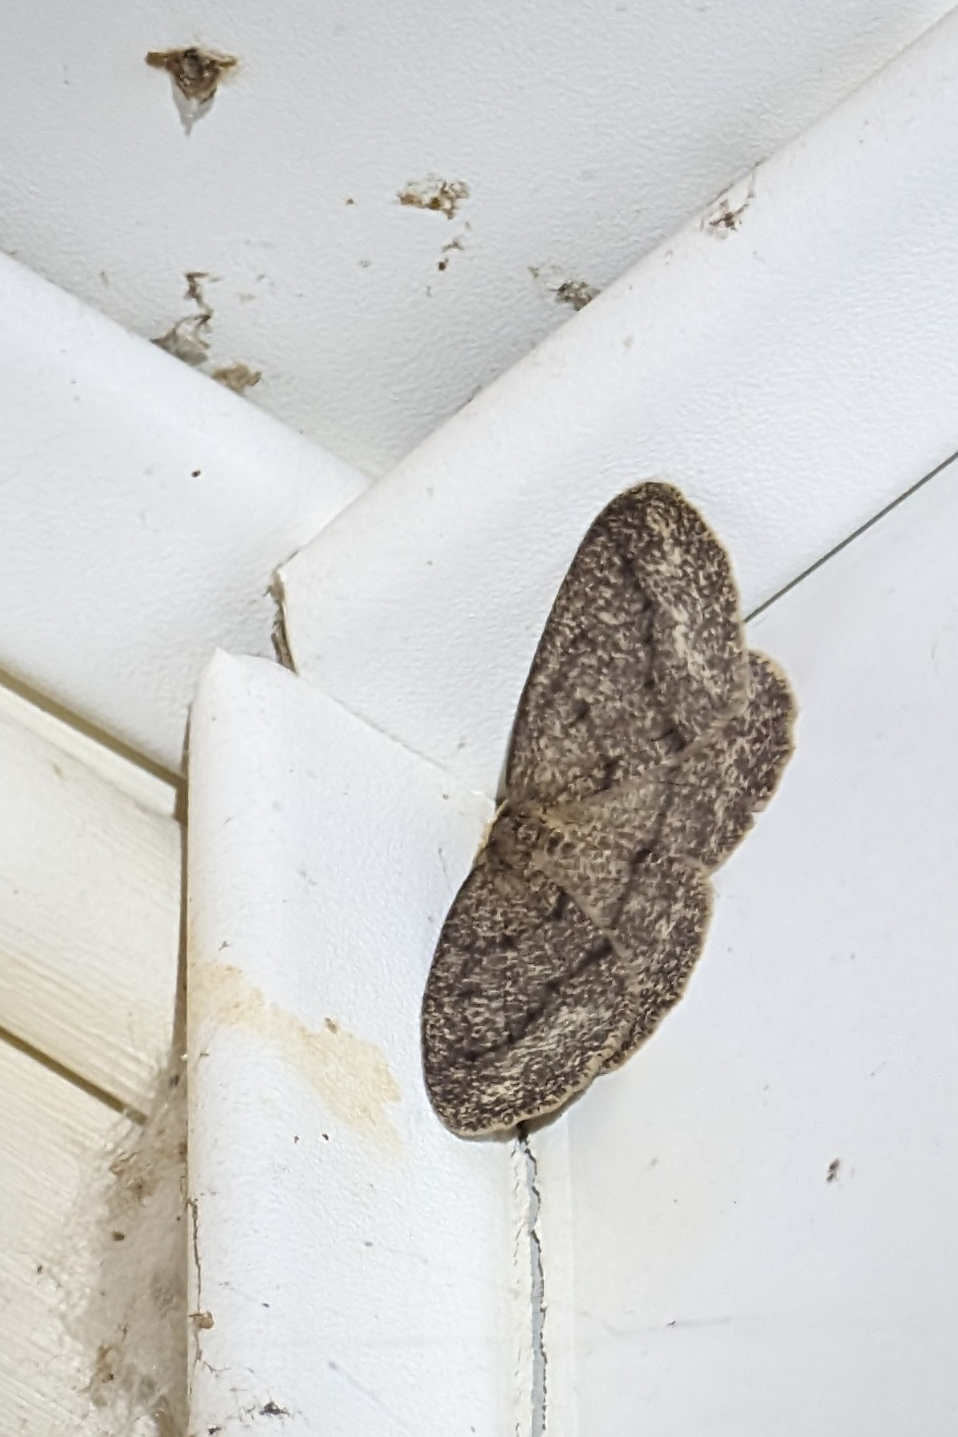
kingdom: Animalia
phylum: Arthropoda
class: Insecta
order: Lepidoptera
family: Geometridae
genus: Lambdina
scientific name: Lambdina fervidaria
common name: Curve-lined looper moth
